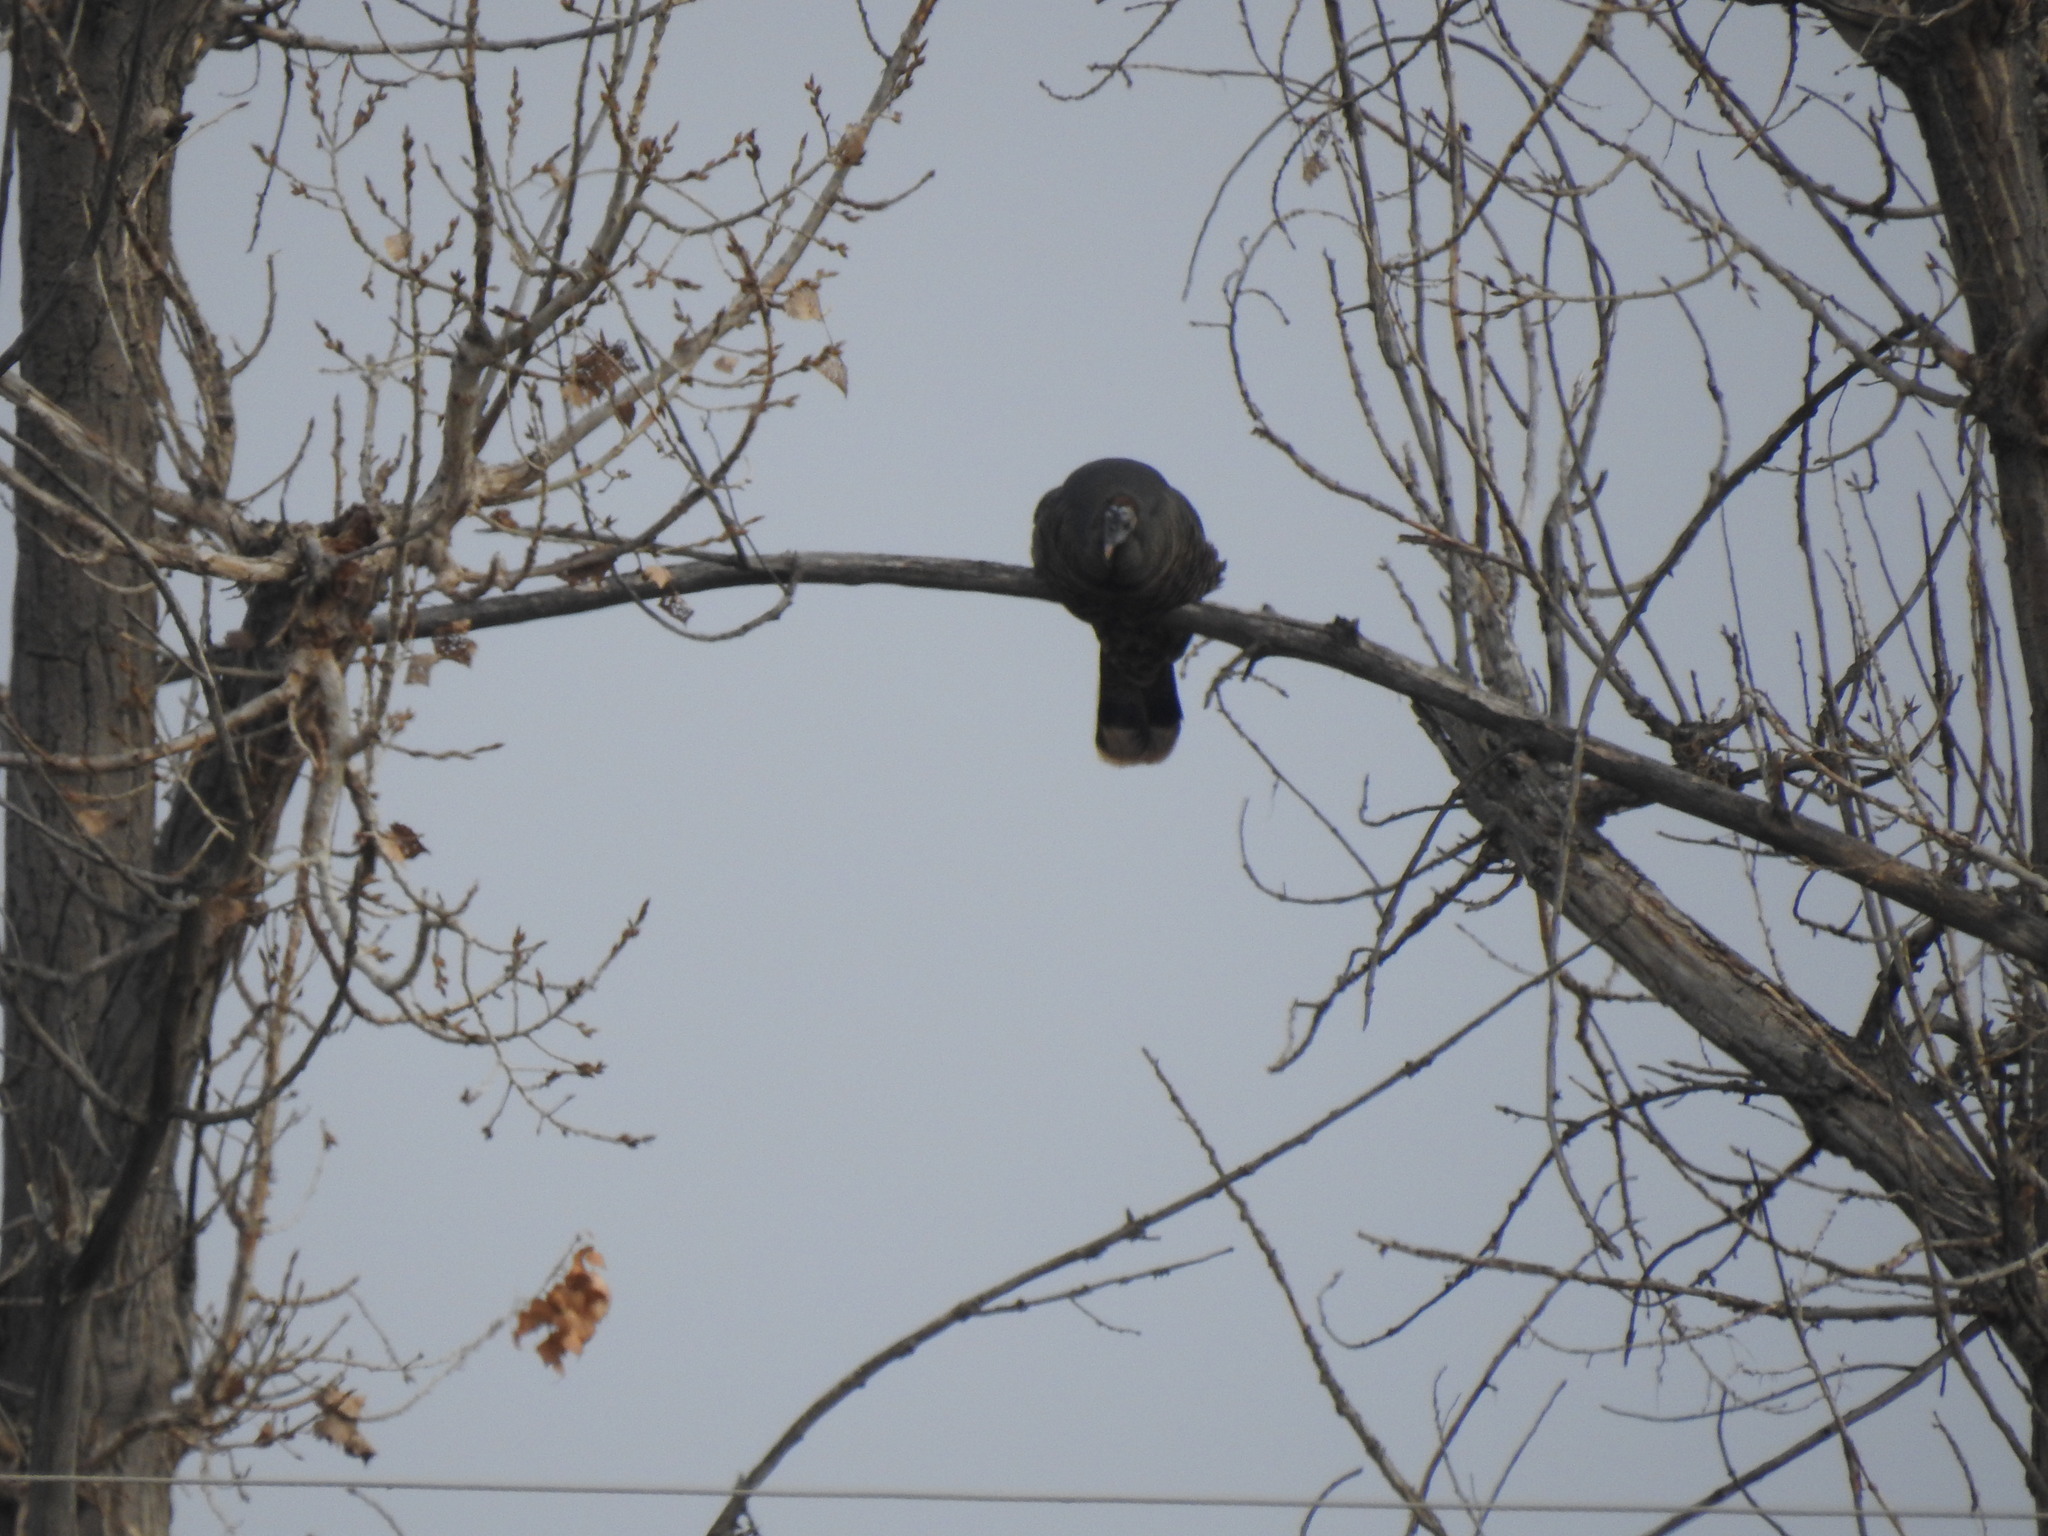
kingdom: Animalia
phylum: Chordata
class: Aves
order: Galliformes
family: Phasianidae
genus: Meleagris
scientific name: Meleagris gallopavo
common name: Wild turkey
